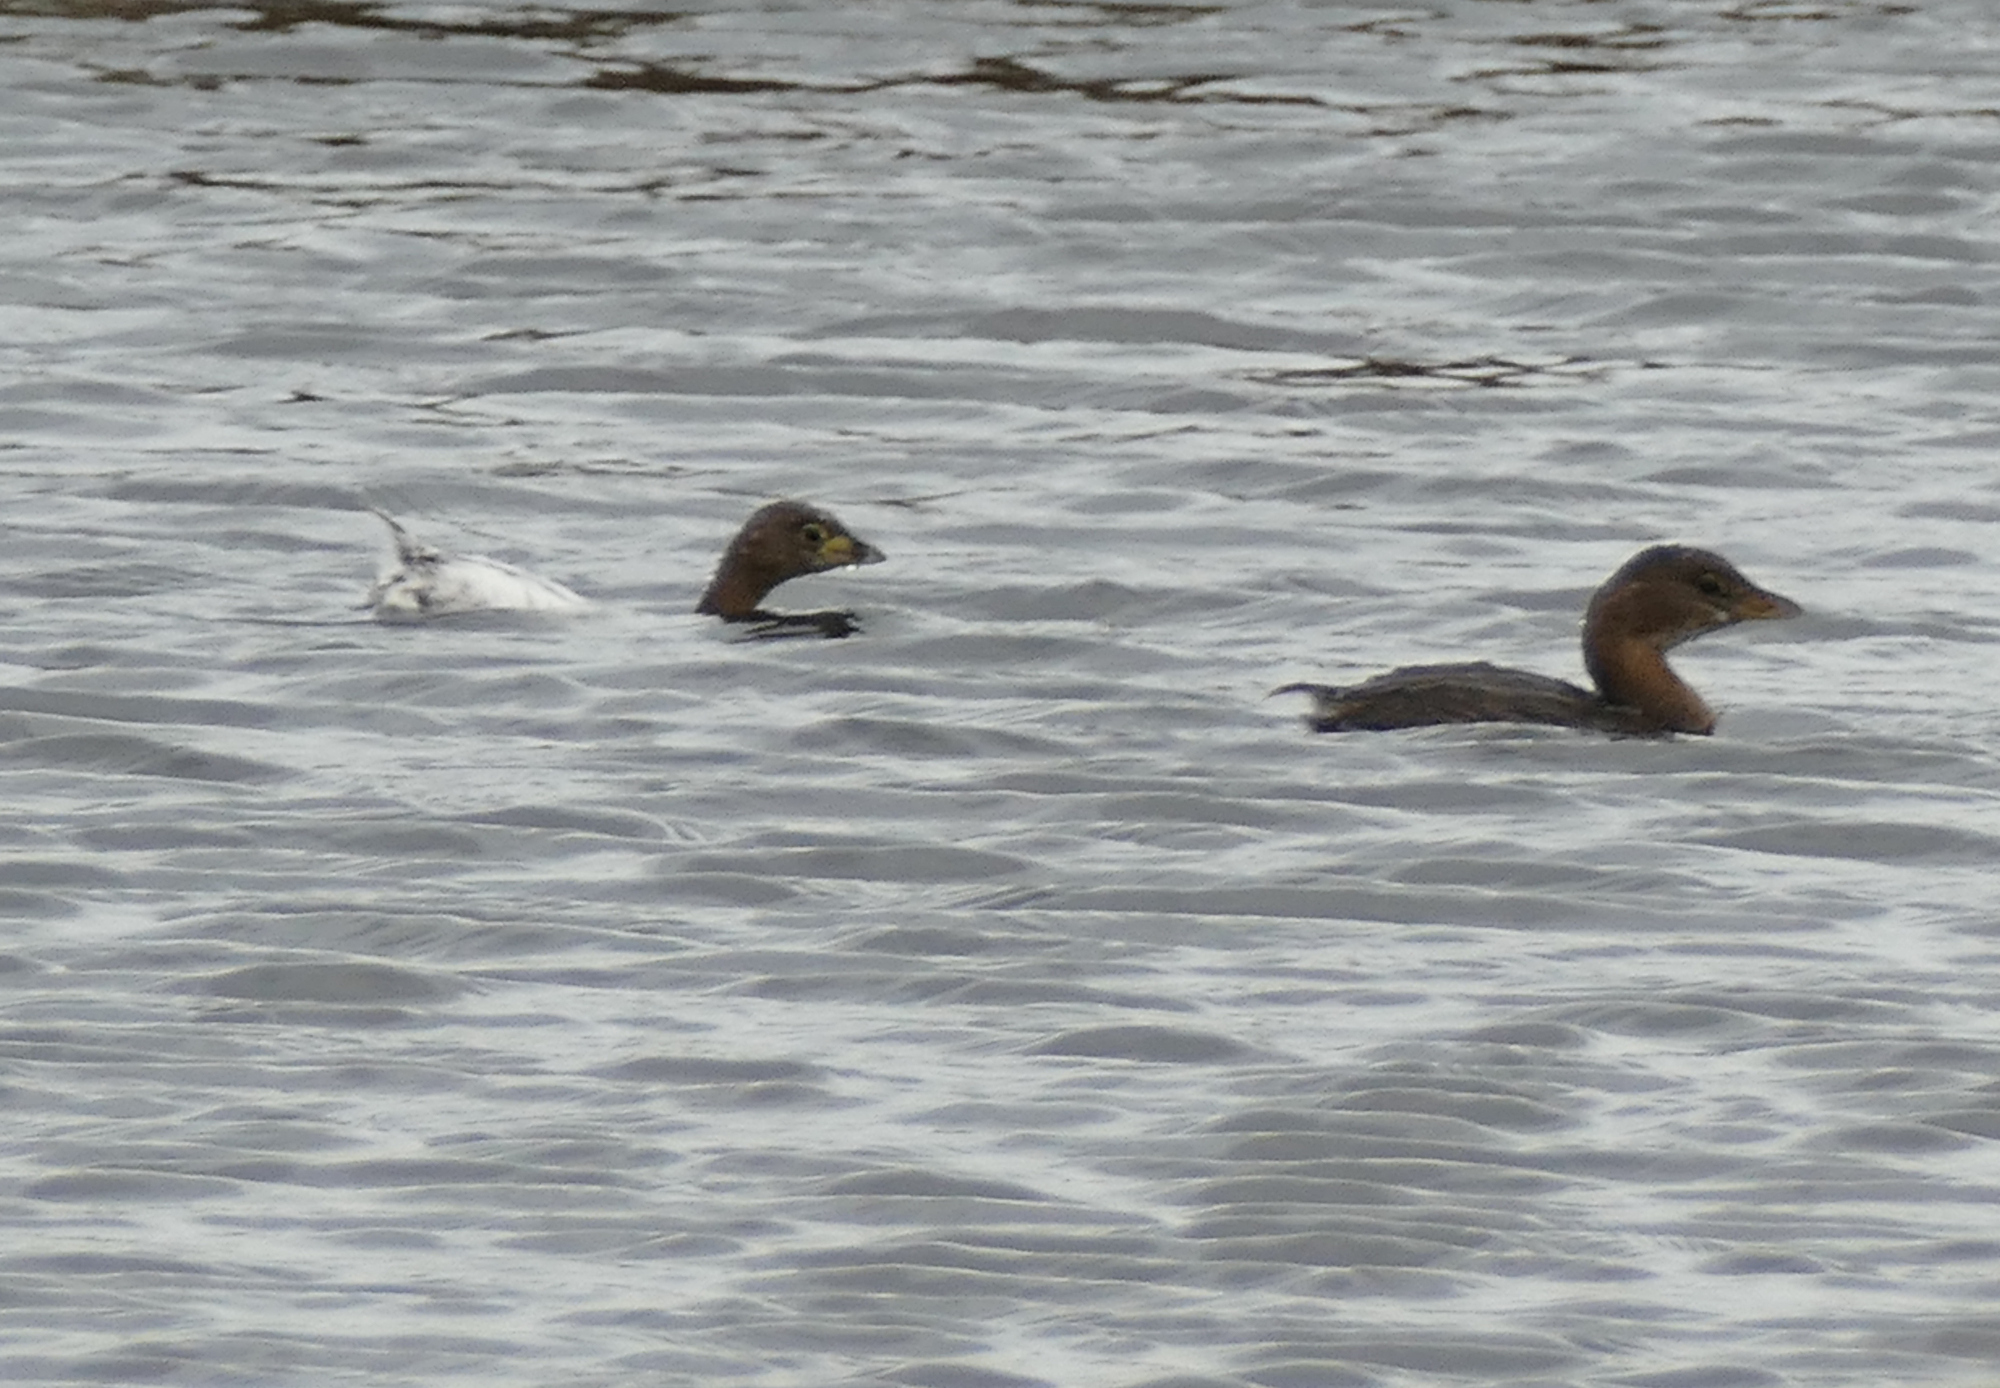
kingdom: Animalia
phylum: Chordata
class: Aves
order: Podicipediformes
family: Podicipedidae
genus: Podilymbus
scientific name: Podilymbus podiceps
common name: Pied-billed grebe
